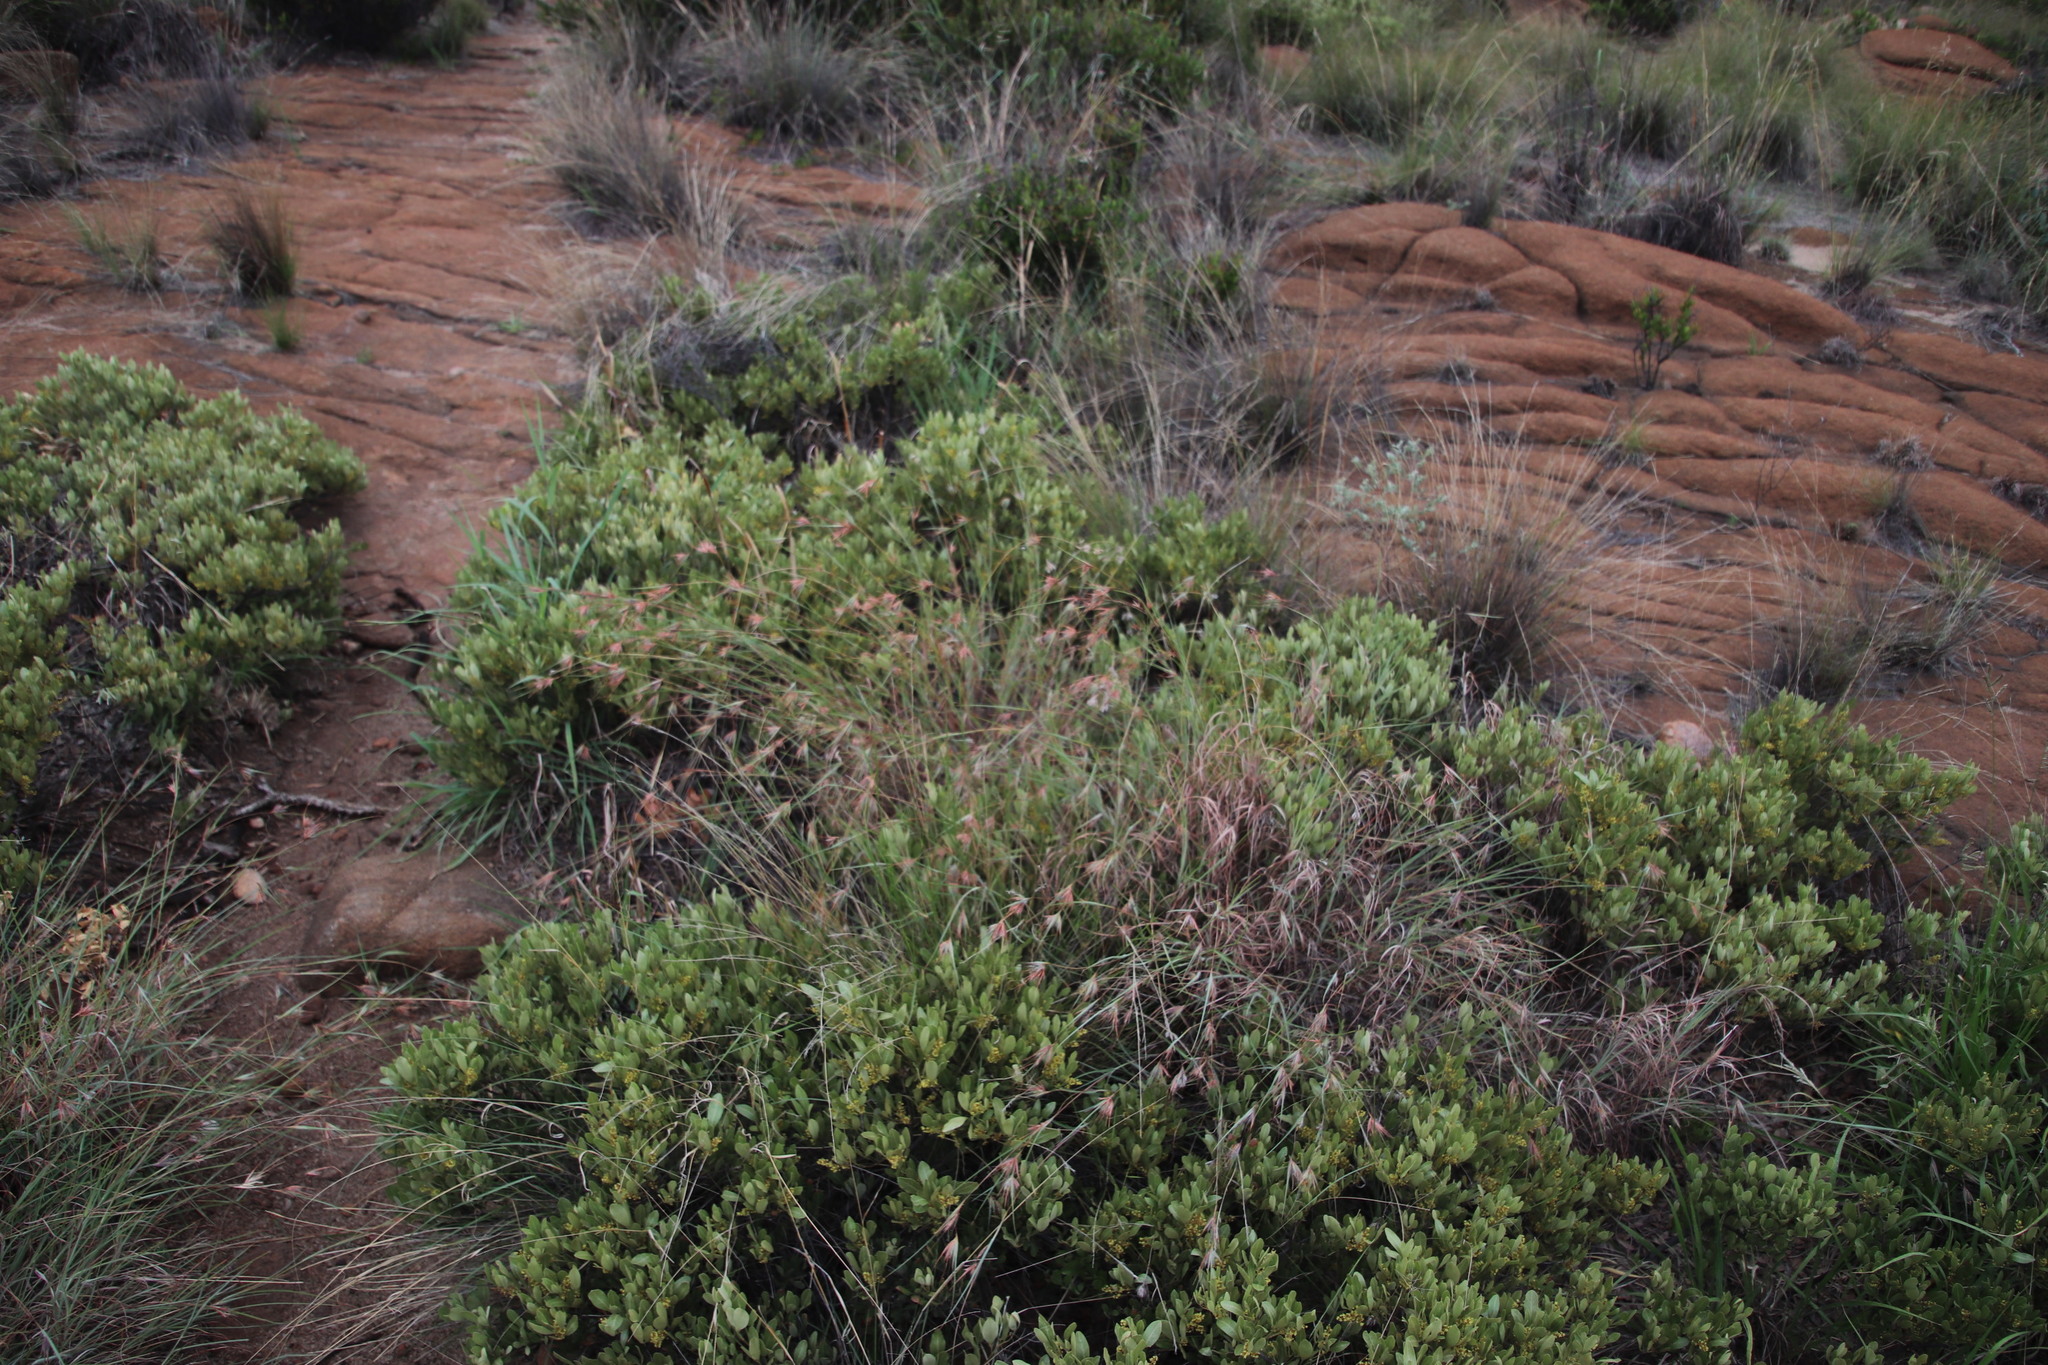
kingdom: Plantae
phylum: Tracheophyta
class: Liliopsida
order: Poales
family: Poaceae
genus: Themeda
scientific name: Themeda triandra
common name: Kangaroo grass
